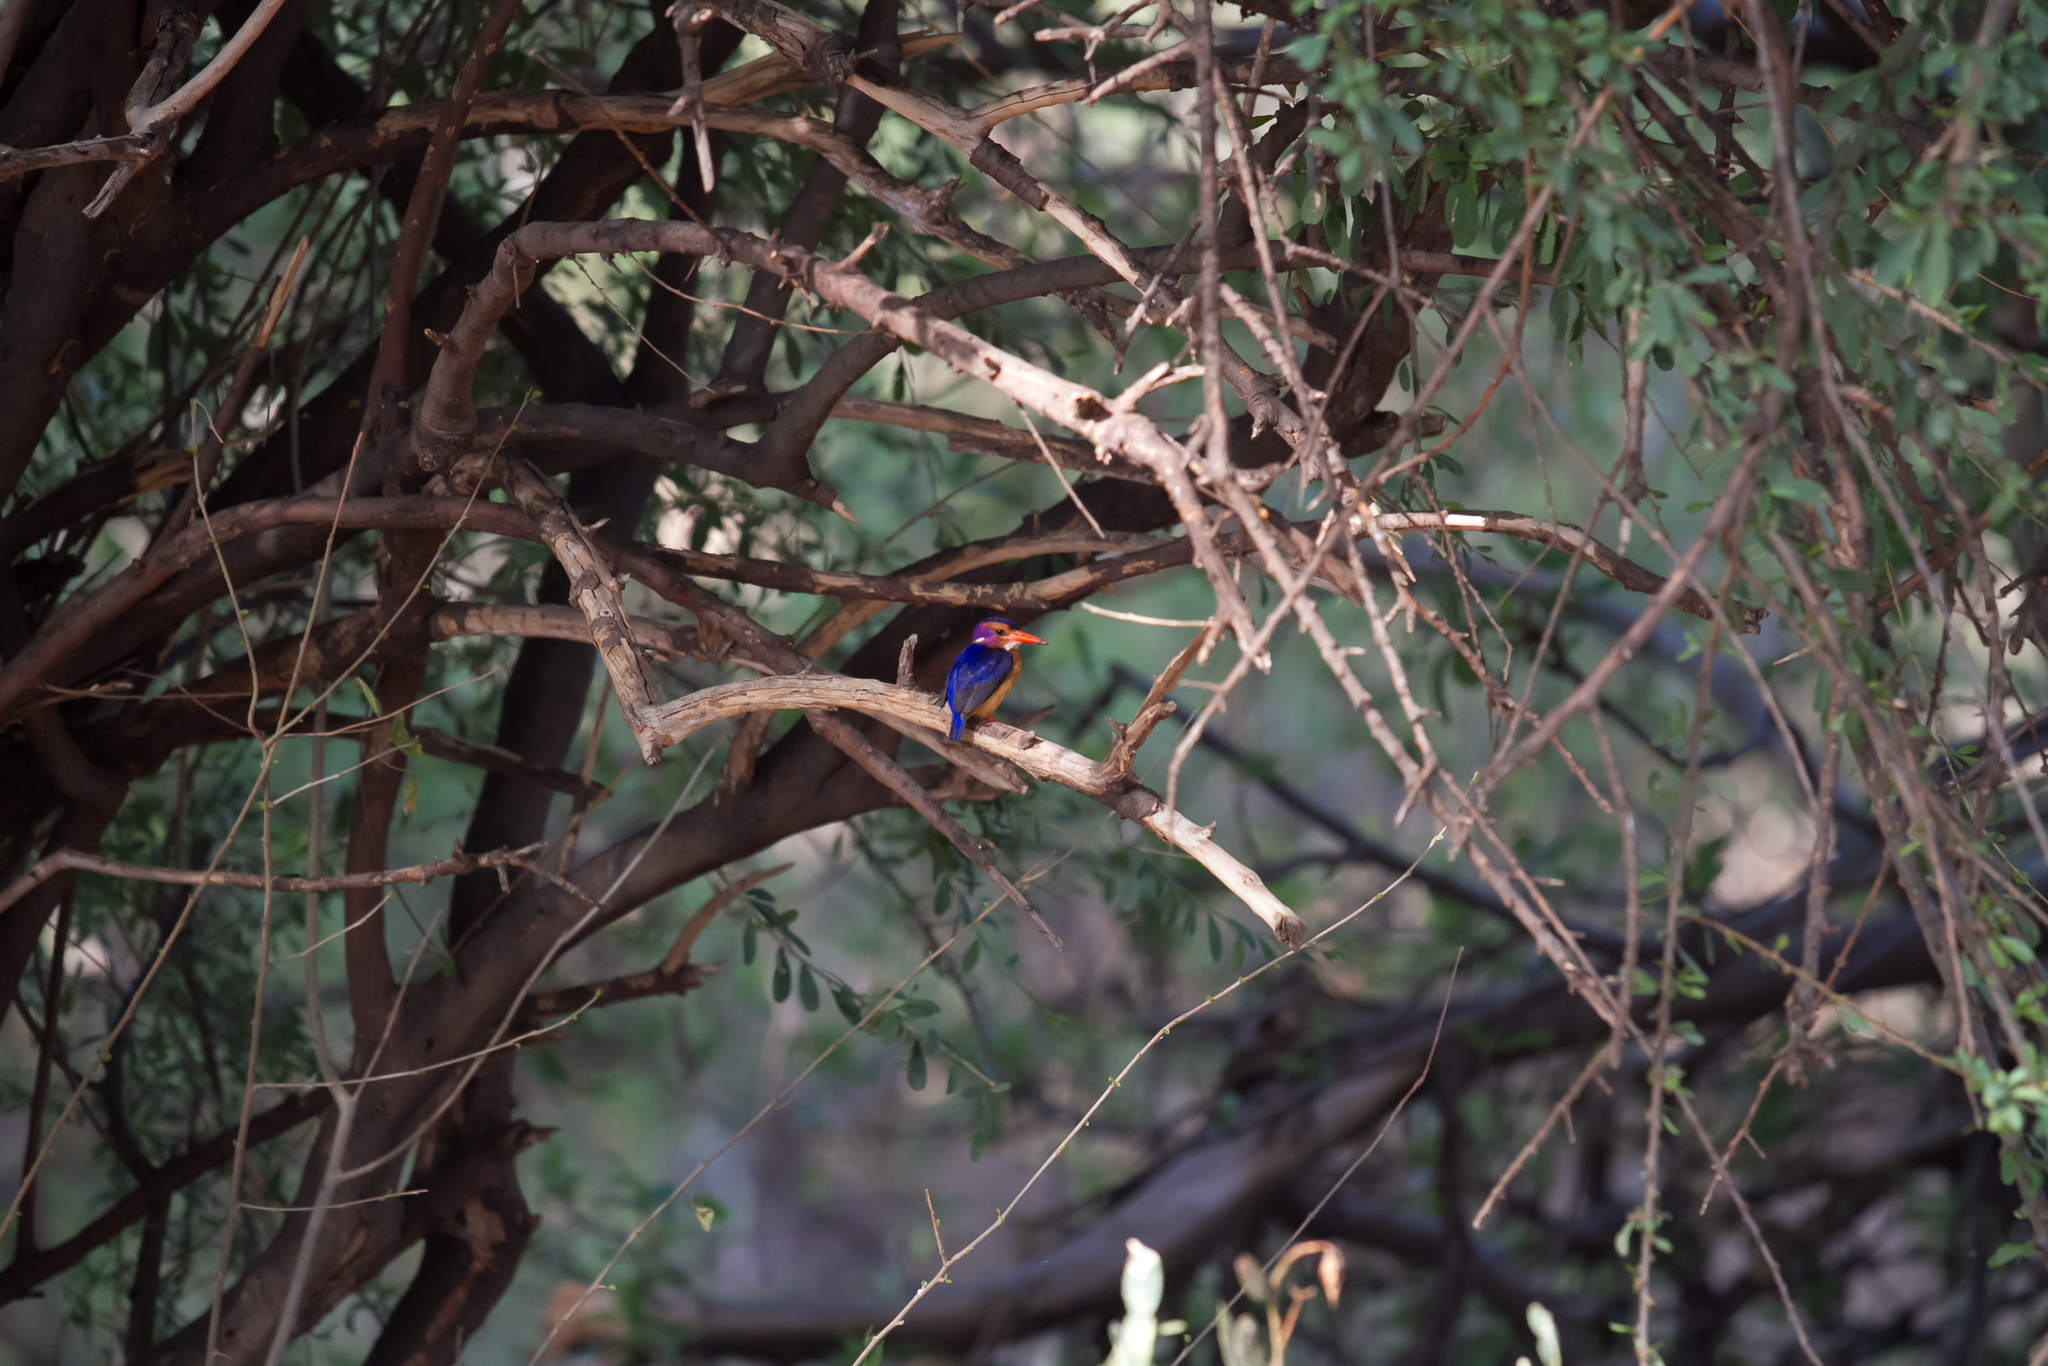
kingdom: Animalia
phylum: Chordata
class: Aves
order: Coraciiformes
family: Alcedinidae
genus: Ispidina
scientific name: Ispidina picta
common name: African pygmy-kingfisher
